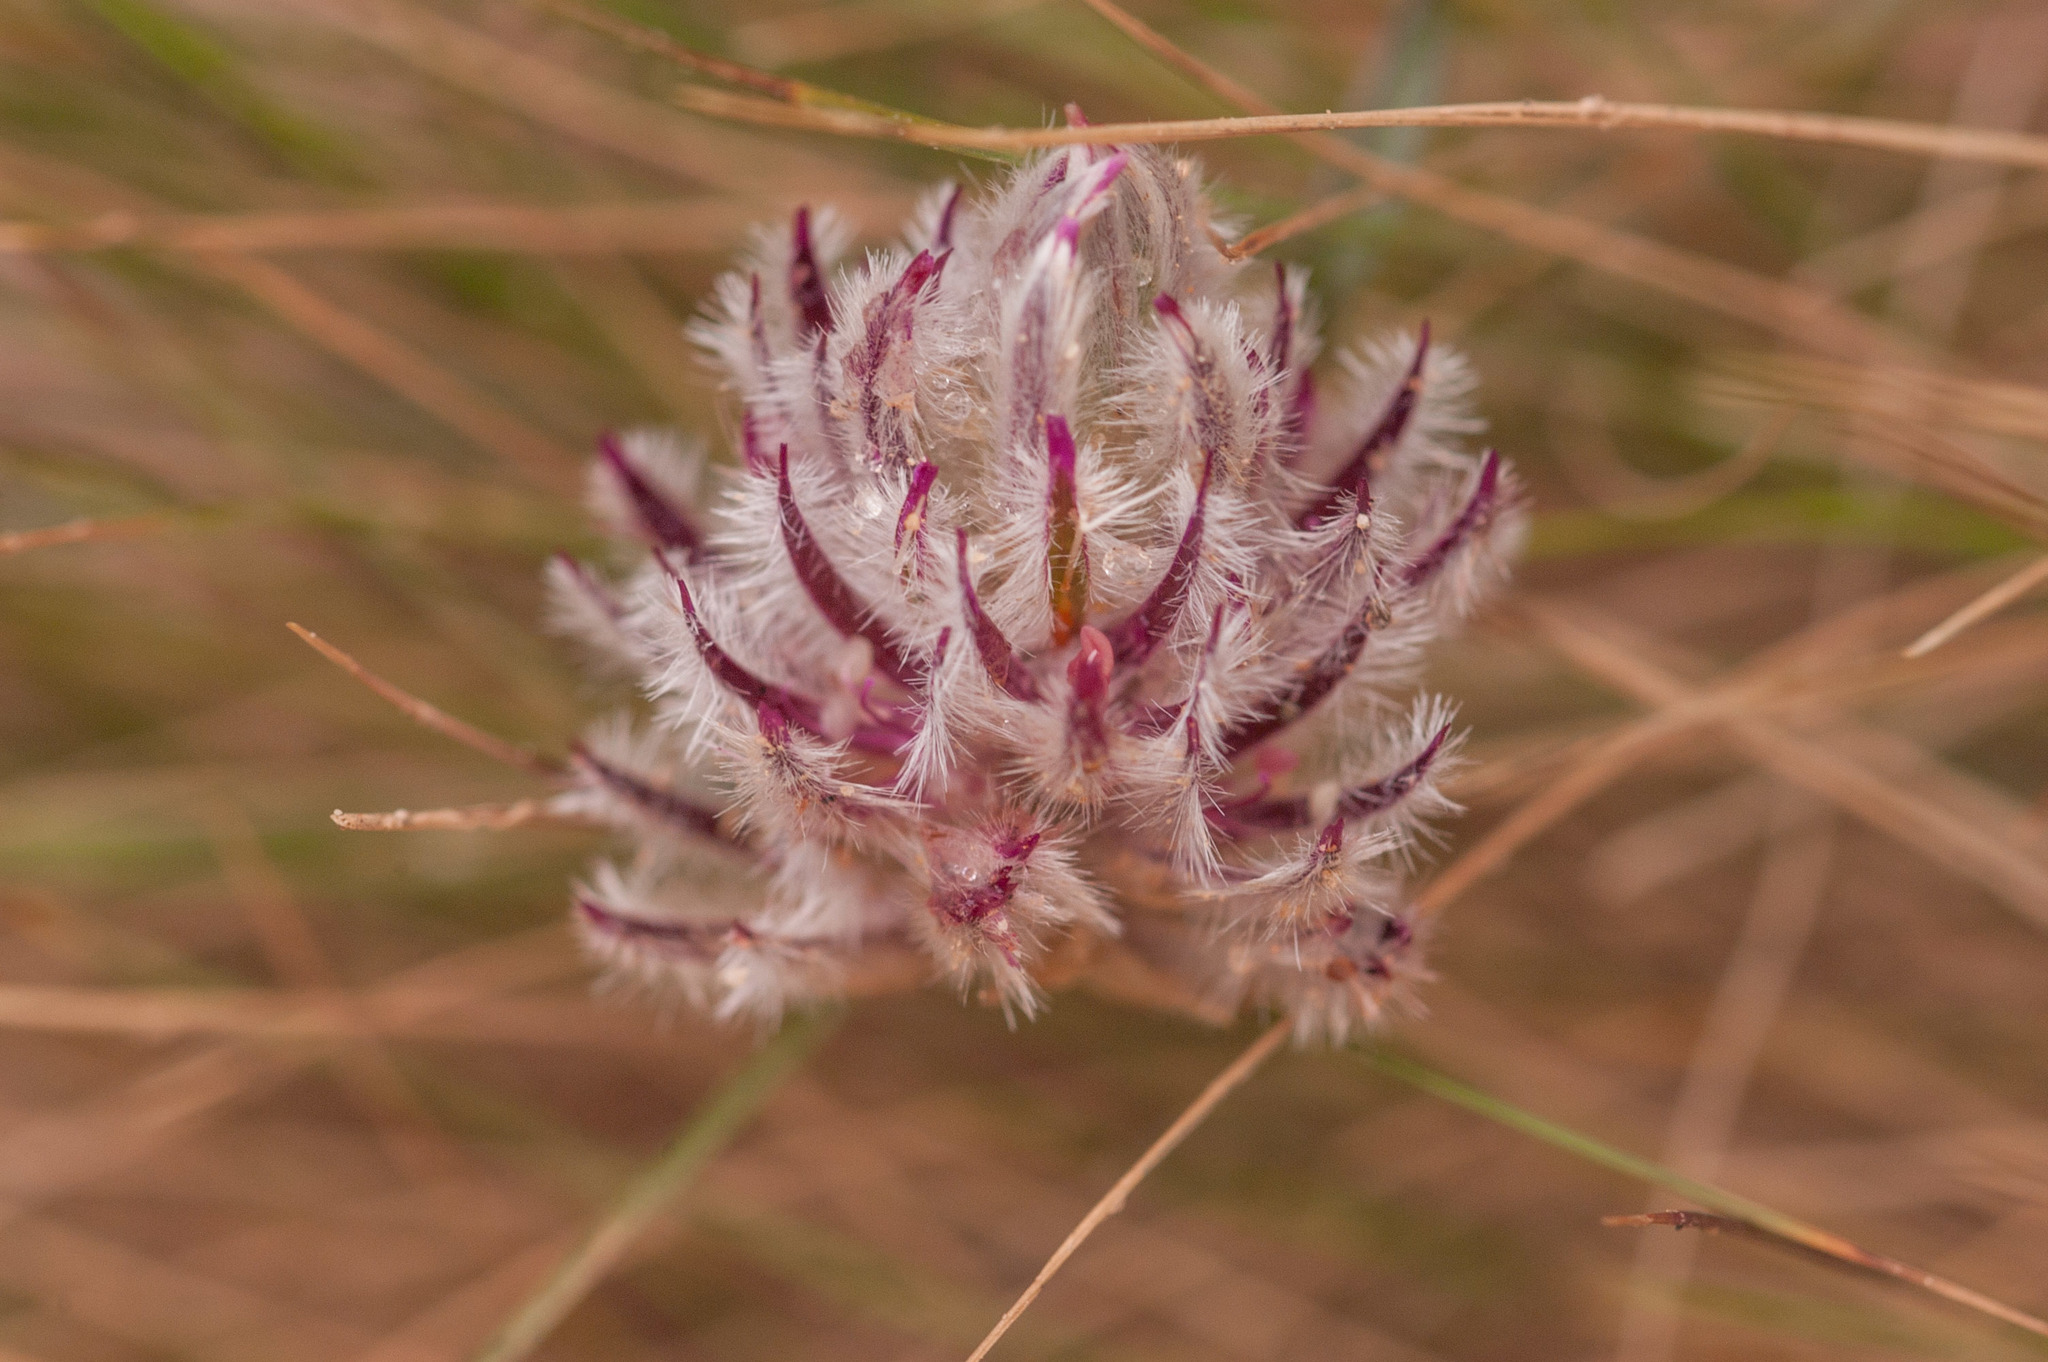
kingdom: Plantae
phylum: Tracheophyta
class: Magnoliopsida
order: Caryophyllales
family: Amaranthaceae
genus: Ptilotus
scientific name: Ptilotus erubescens
